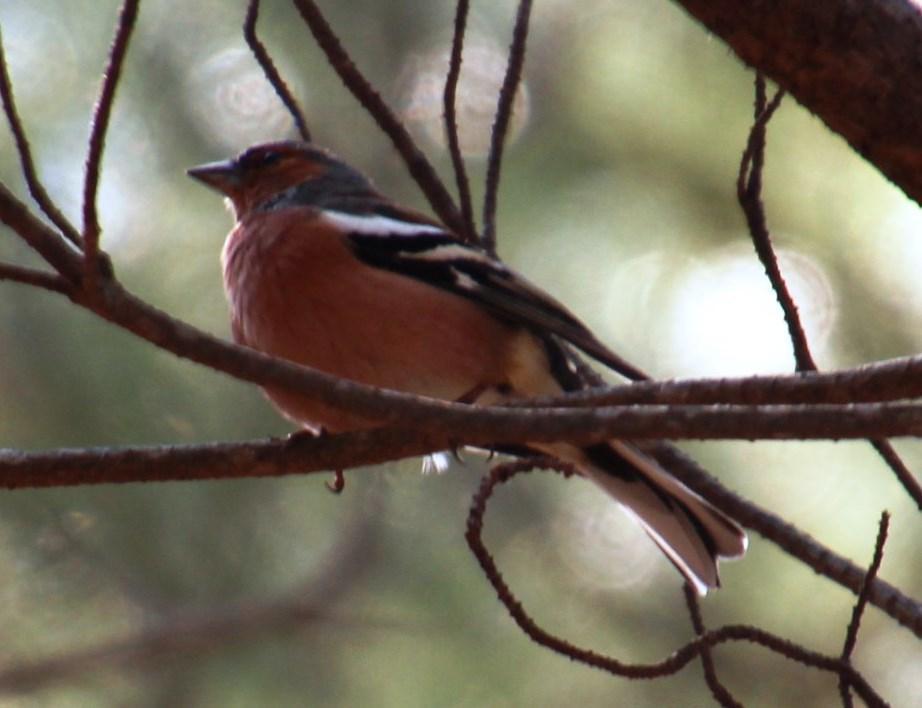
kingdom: Animalia
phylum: Chordata
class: Aves
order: Passeriformes
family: Fringillidae
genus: Fringilla
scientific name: Fringilla coelebs
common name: Common chaffinch
